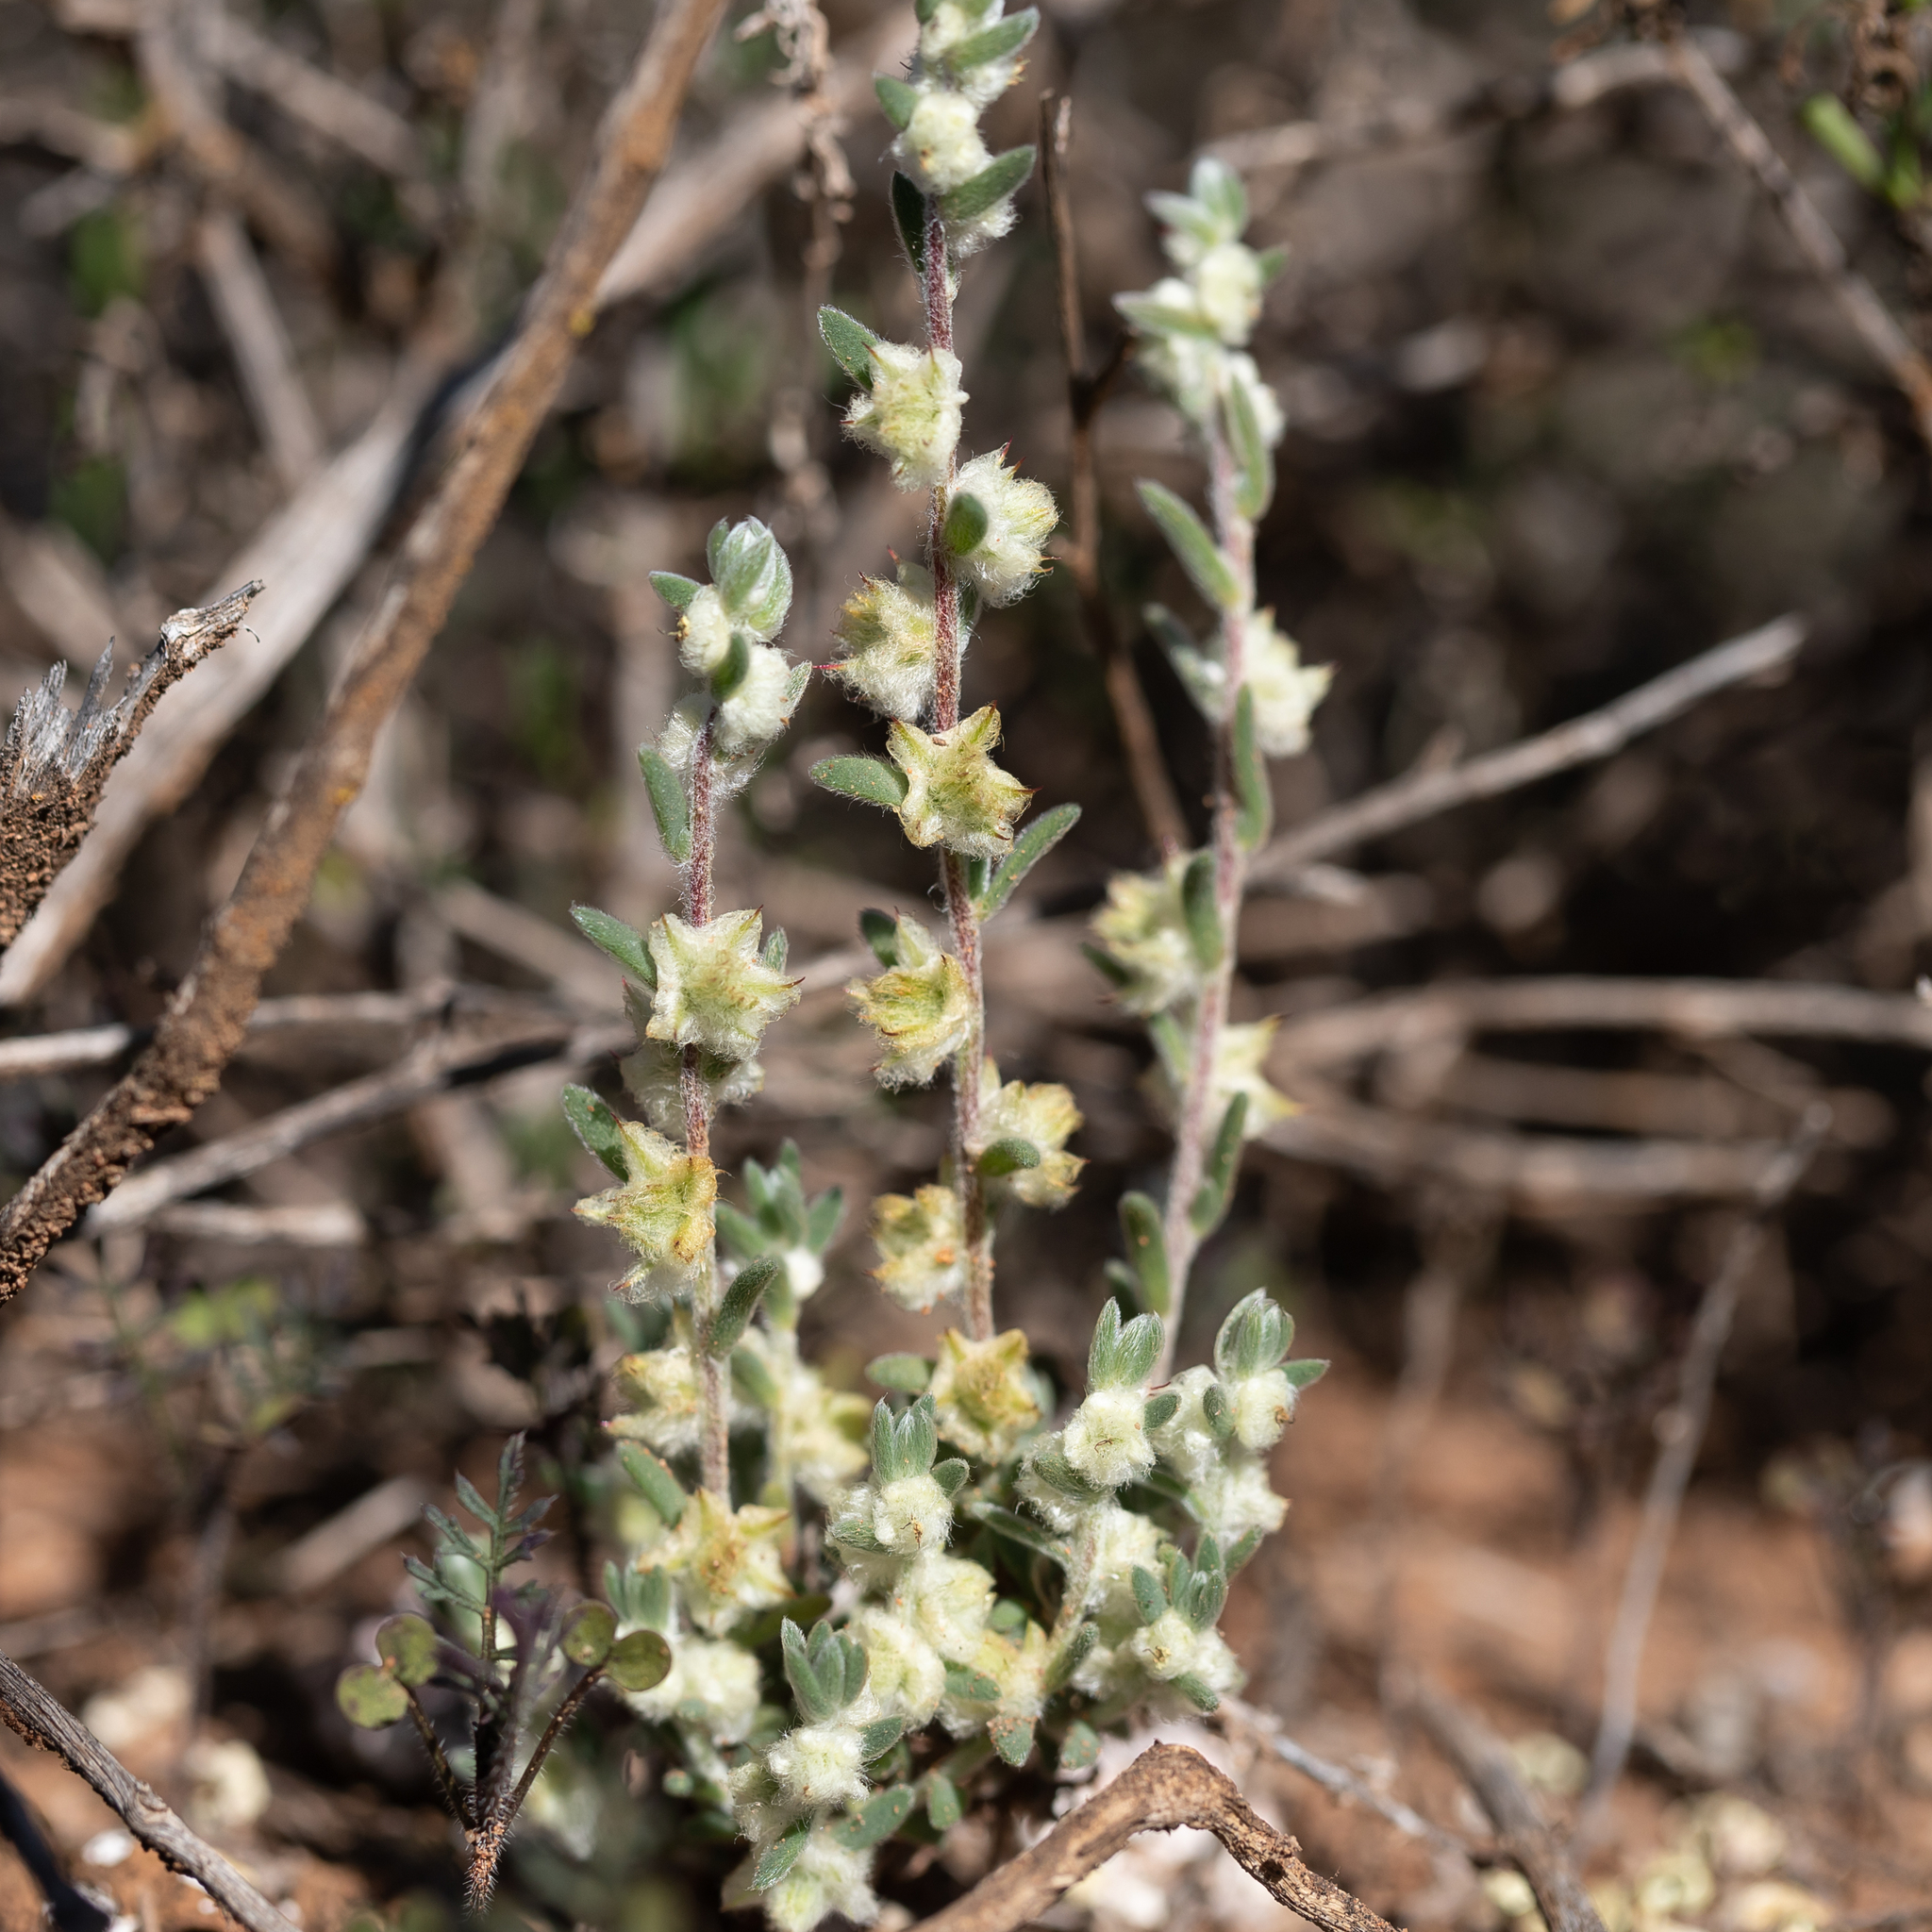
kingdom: Plantae
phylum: Tracheophyta
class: Magnoliopsida
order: Caryophyllales
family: Amaranthaceae
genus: Maireana
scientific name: Maireana sclerolaenoides
